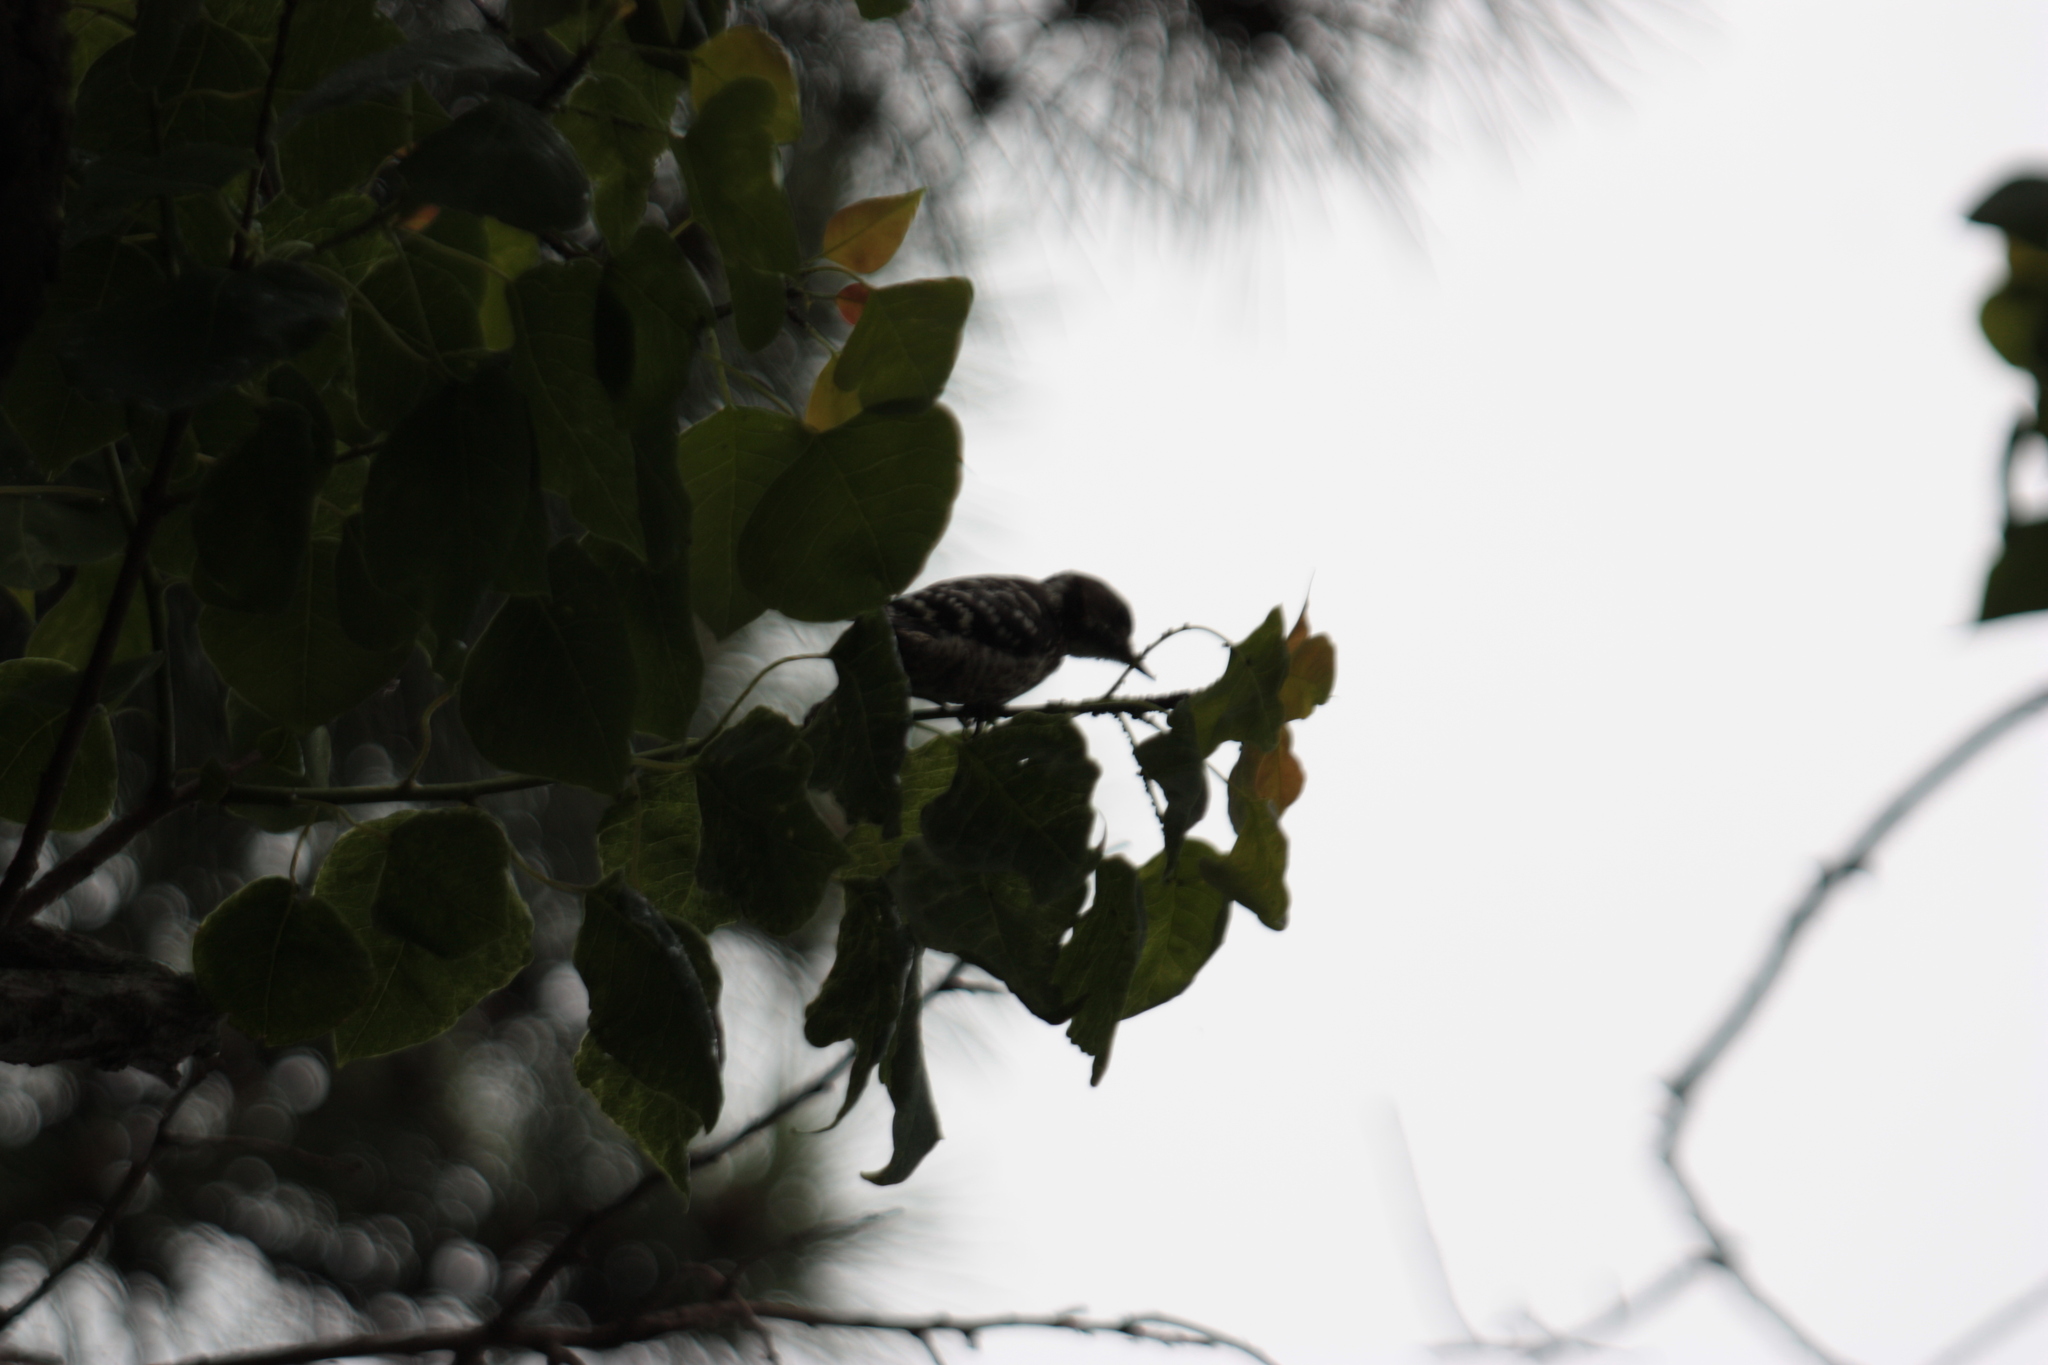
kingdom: Animalia
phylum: Chordata
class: Aves
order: Piciformes
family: Picidae
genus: Yungipicus
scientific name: Yungipicus kizuki
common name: Japanese pygmy woodpecker
